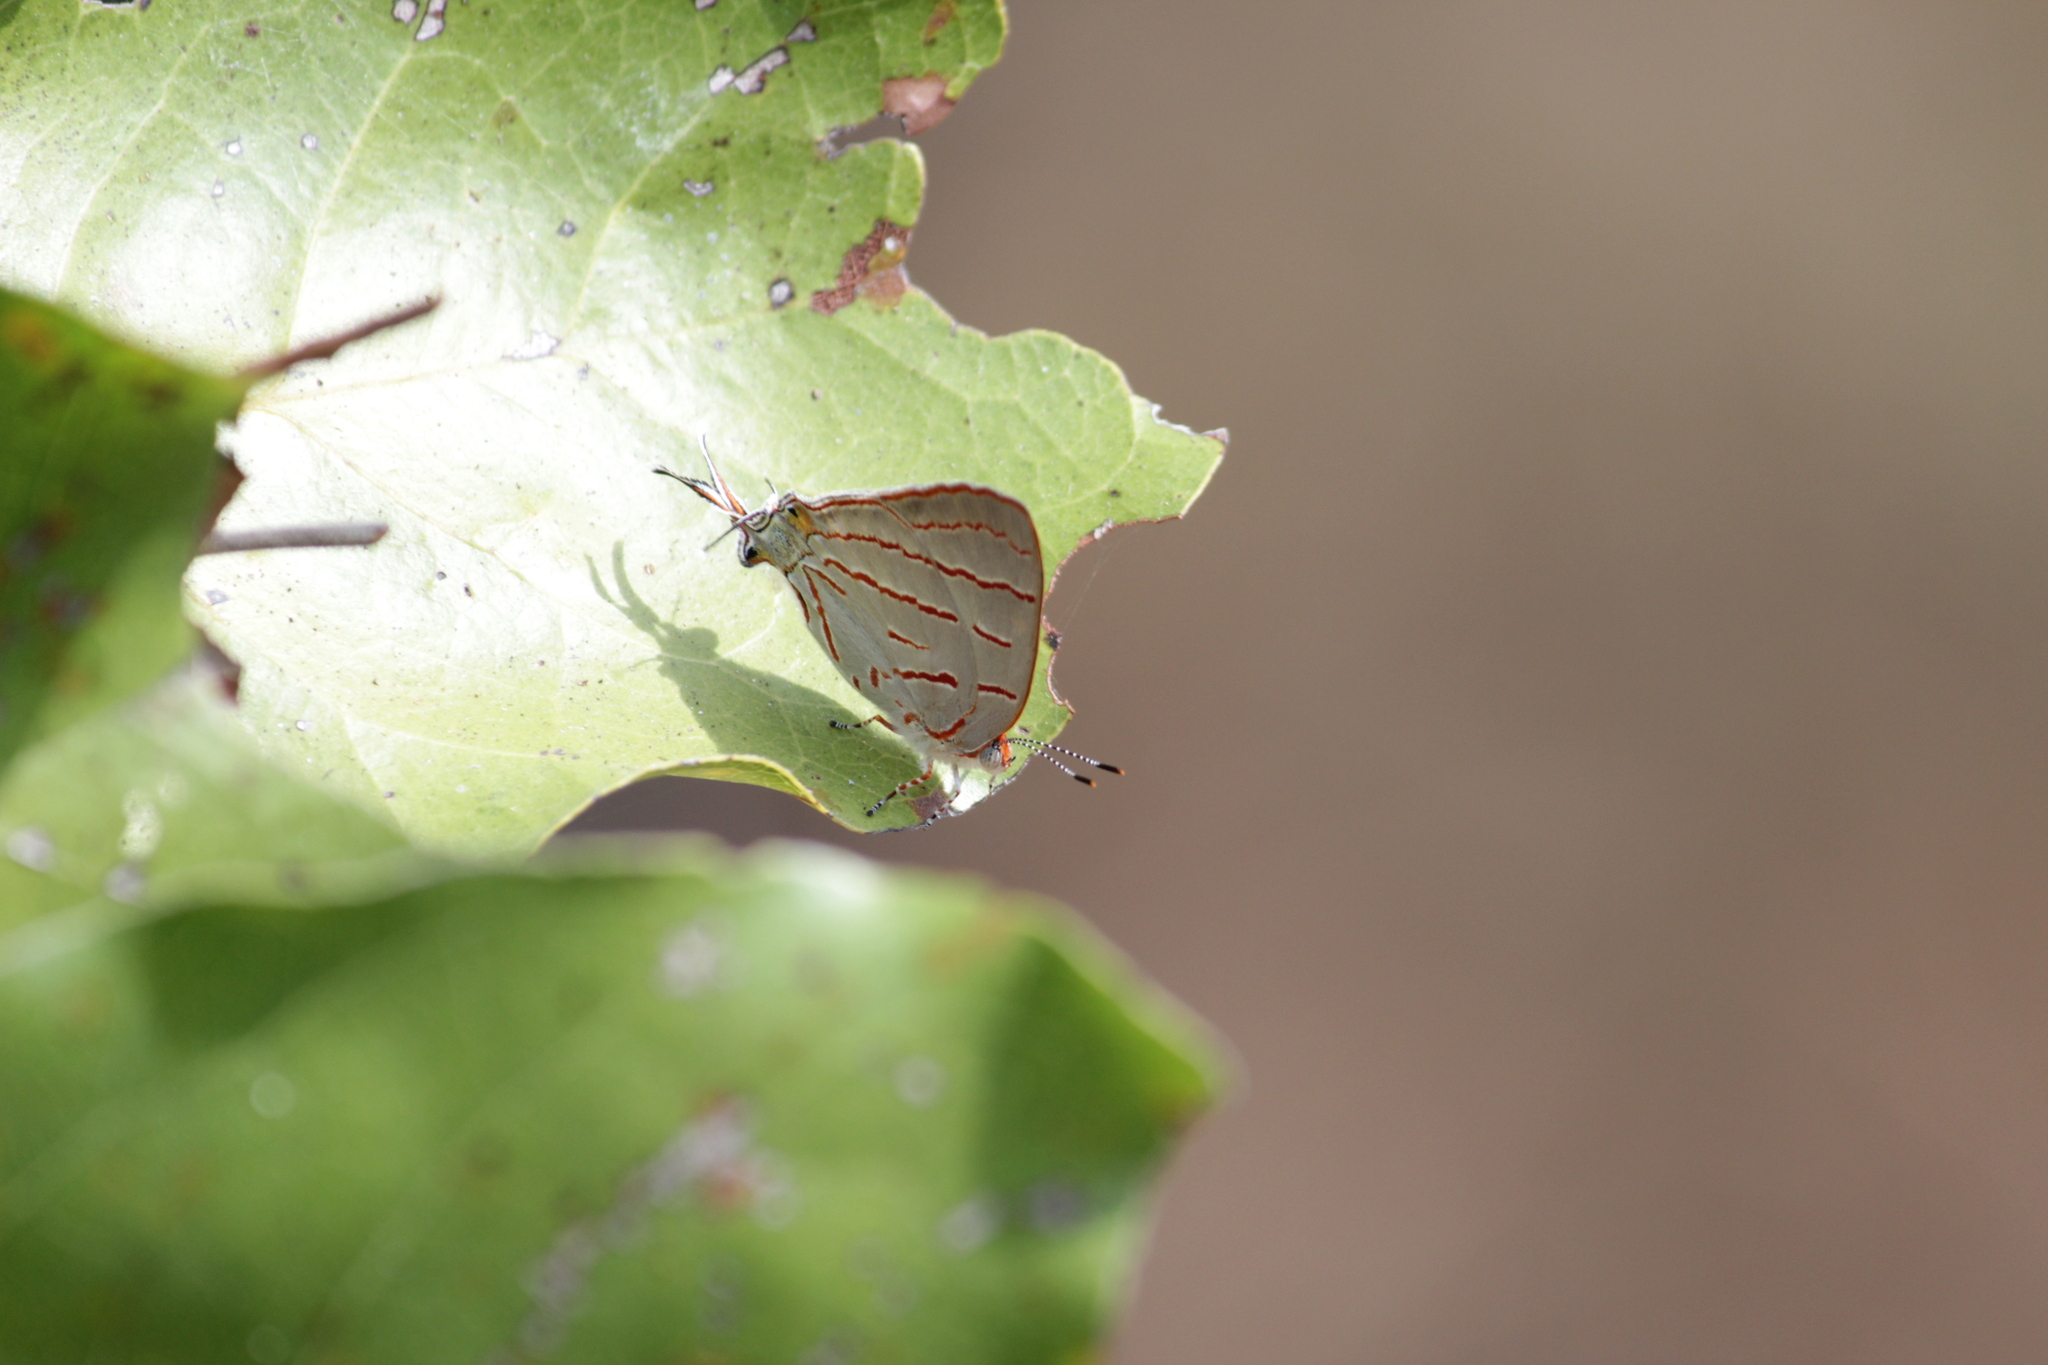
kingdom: Animalia
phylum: Arthropoda
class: Insecta
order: Lepidoptera
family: Lycaenidae
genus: Hemiolaus
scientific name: Hemiolaus caeculus
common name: Azure hairstreak
